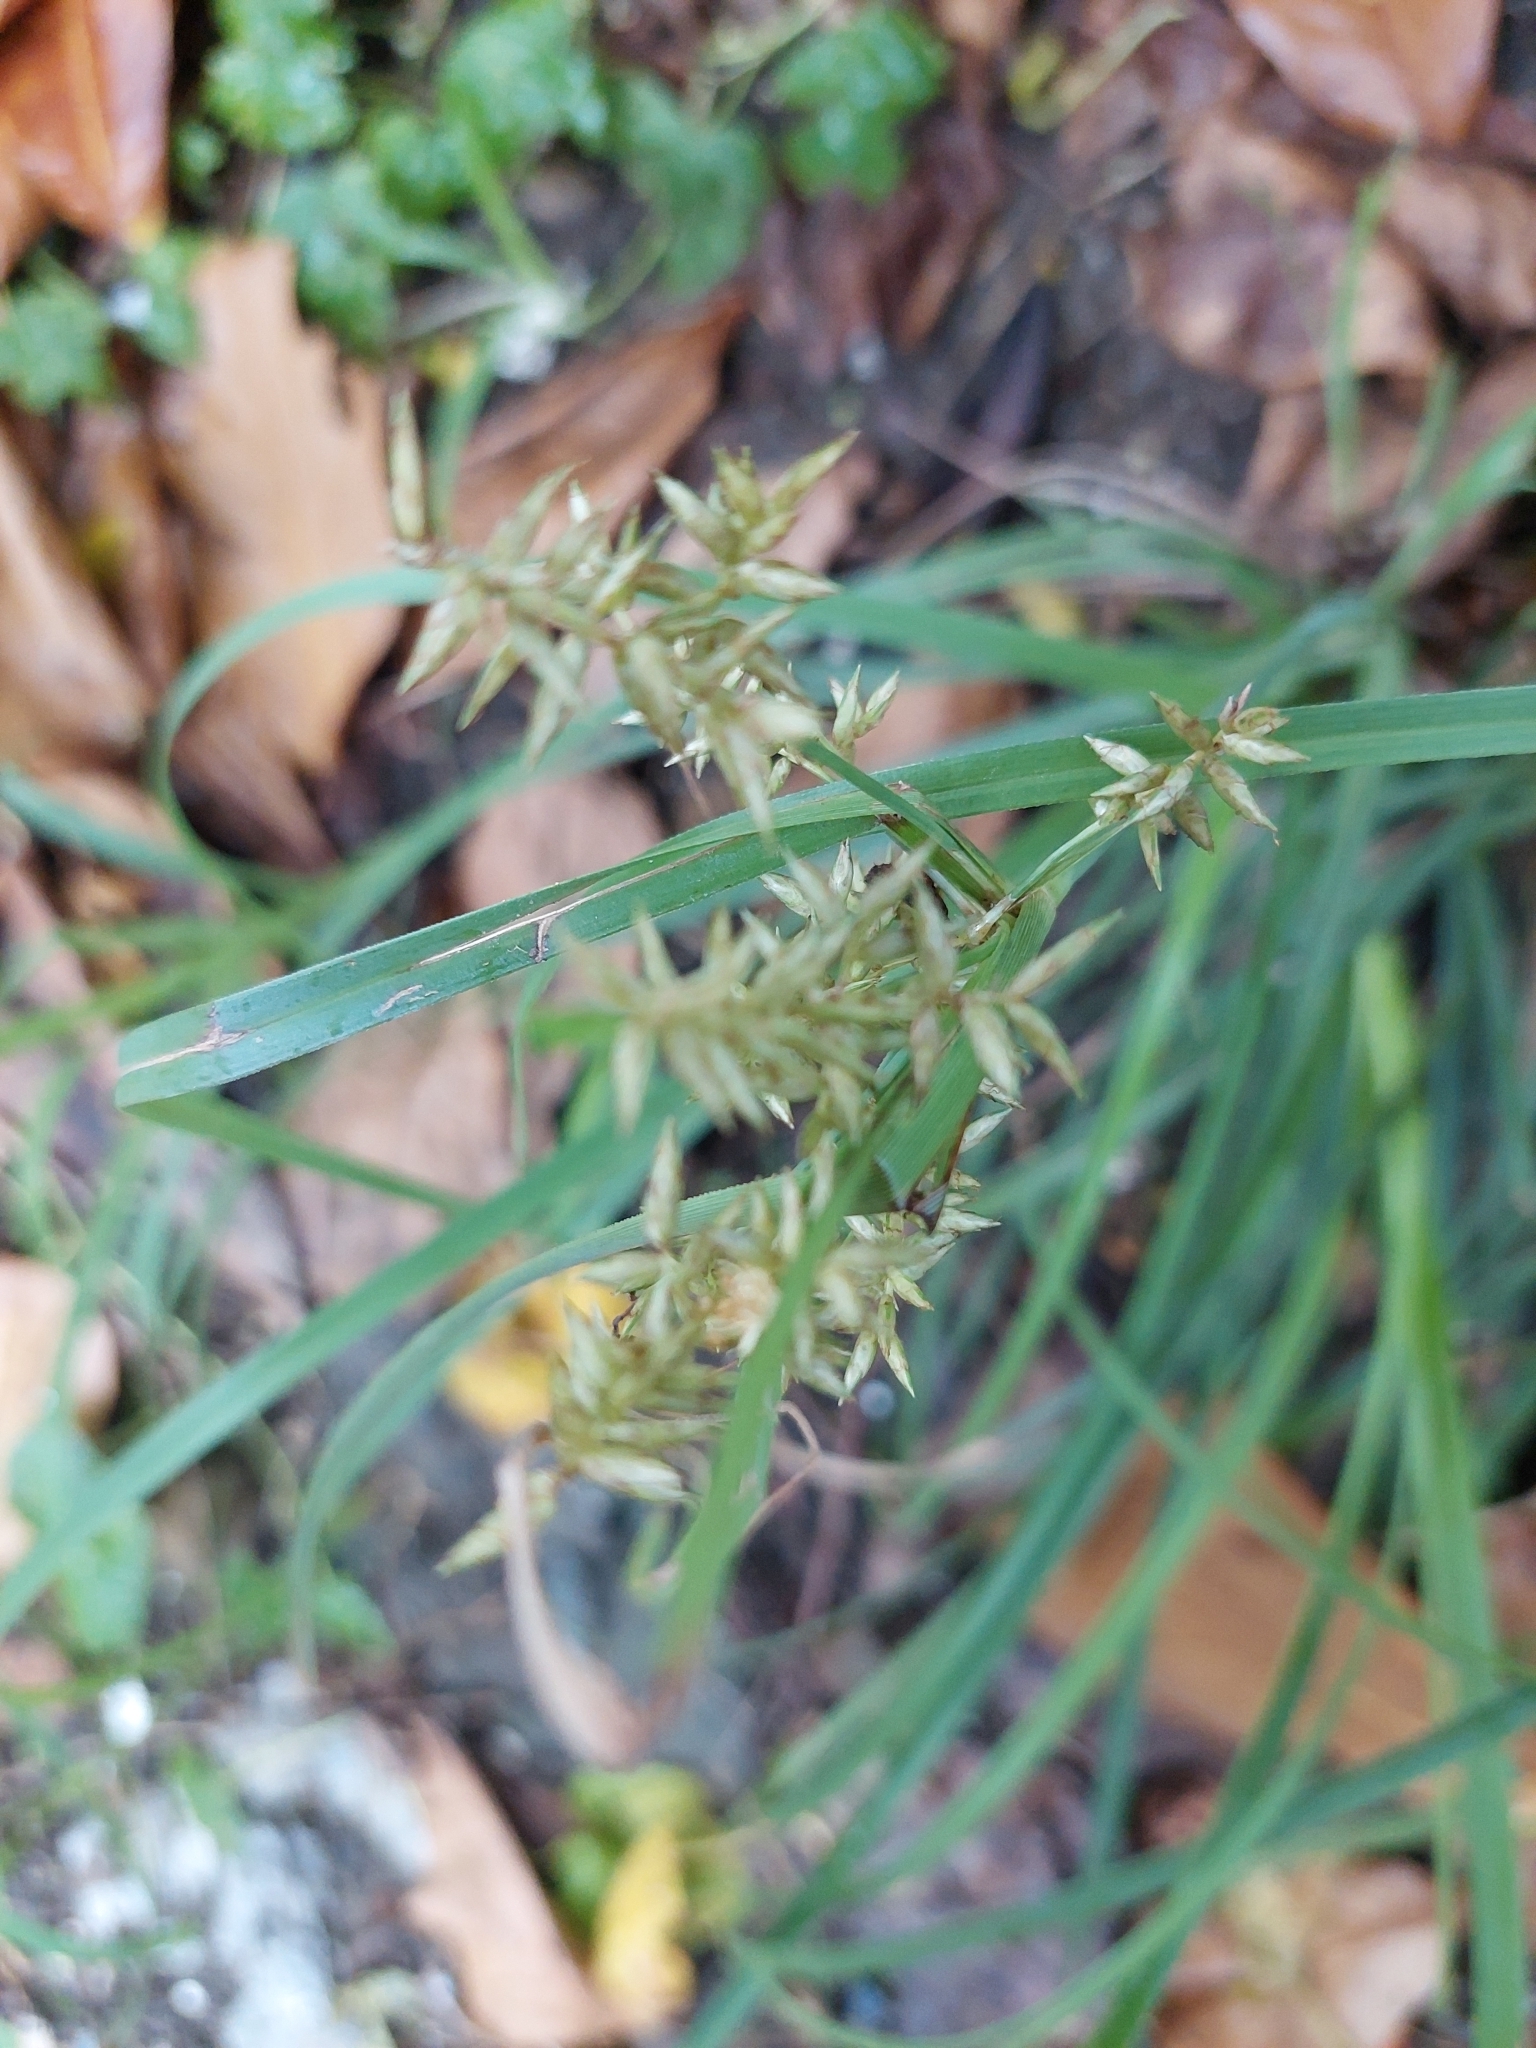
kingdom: Plantae
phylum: Tracheophyta
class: Liliopsida
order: Poales
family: Cyperaceae
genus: Cyperus
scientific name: Cyperus cyperoides
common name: Pacific island flat sedge
